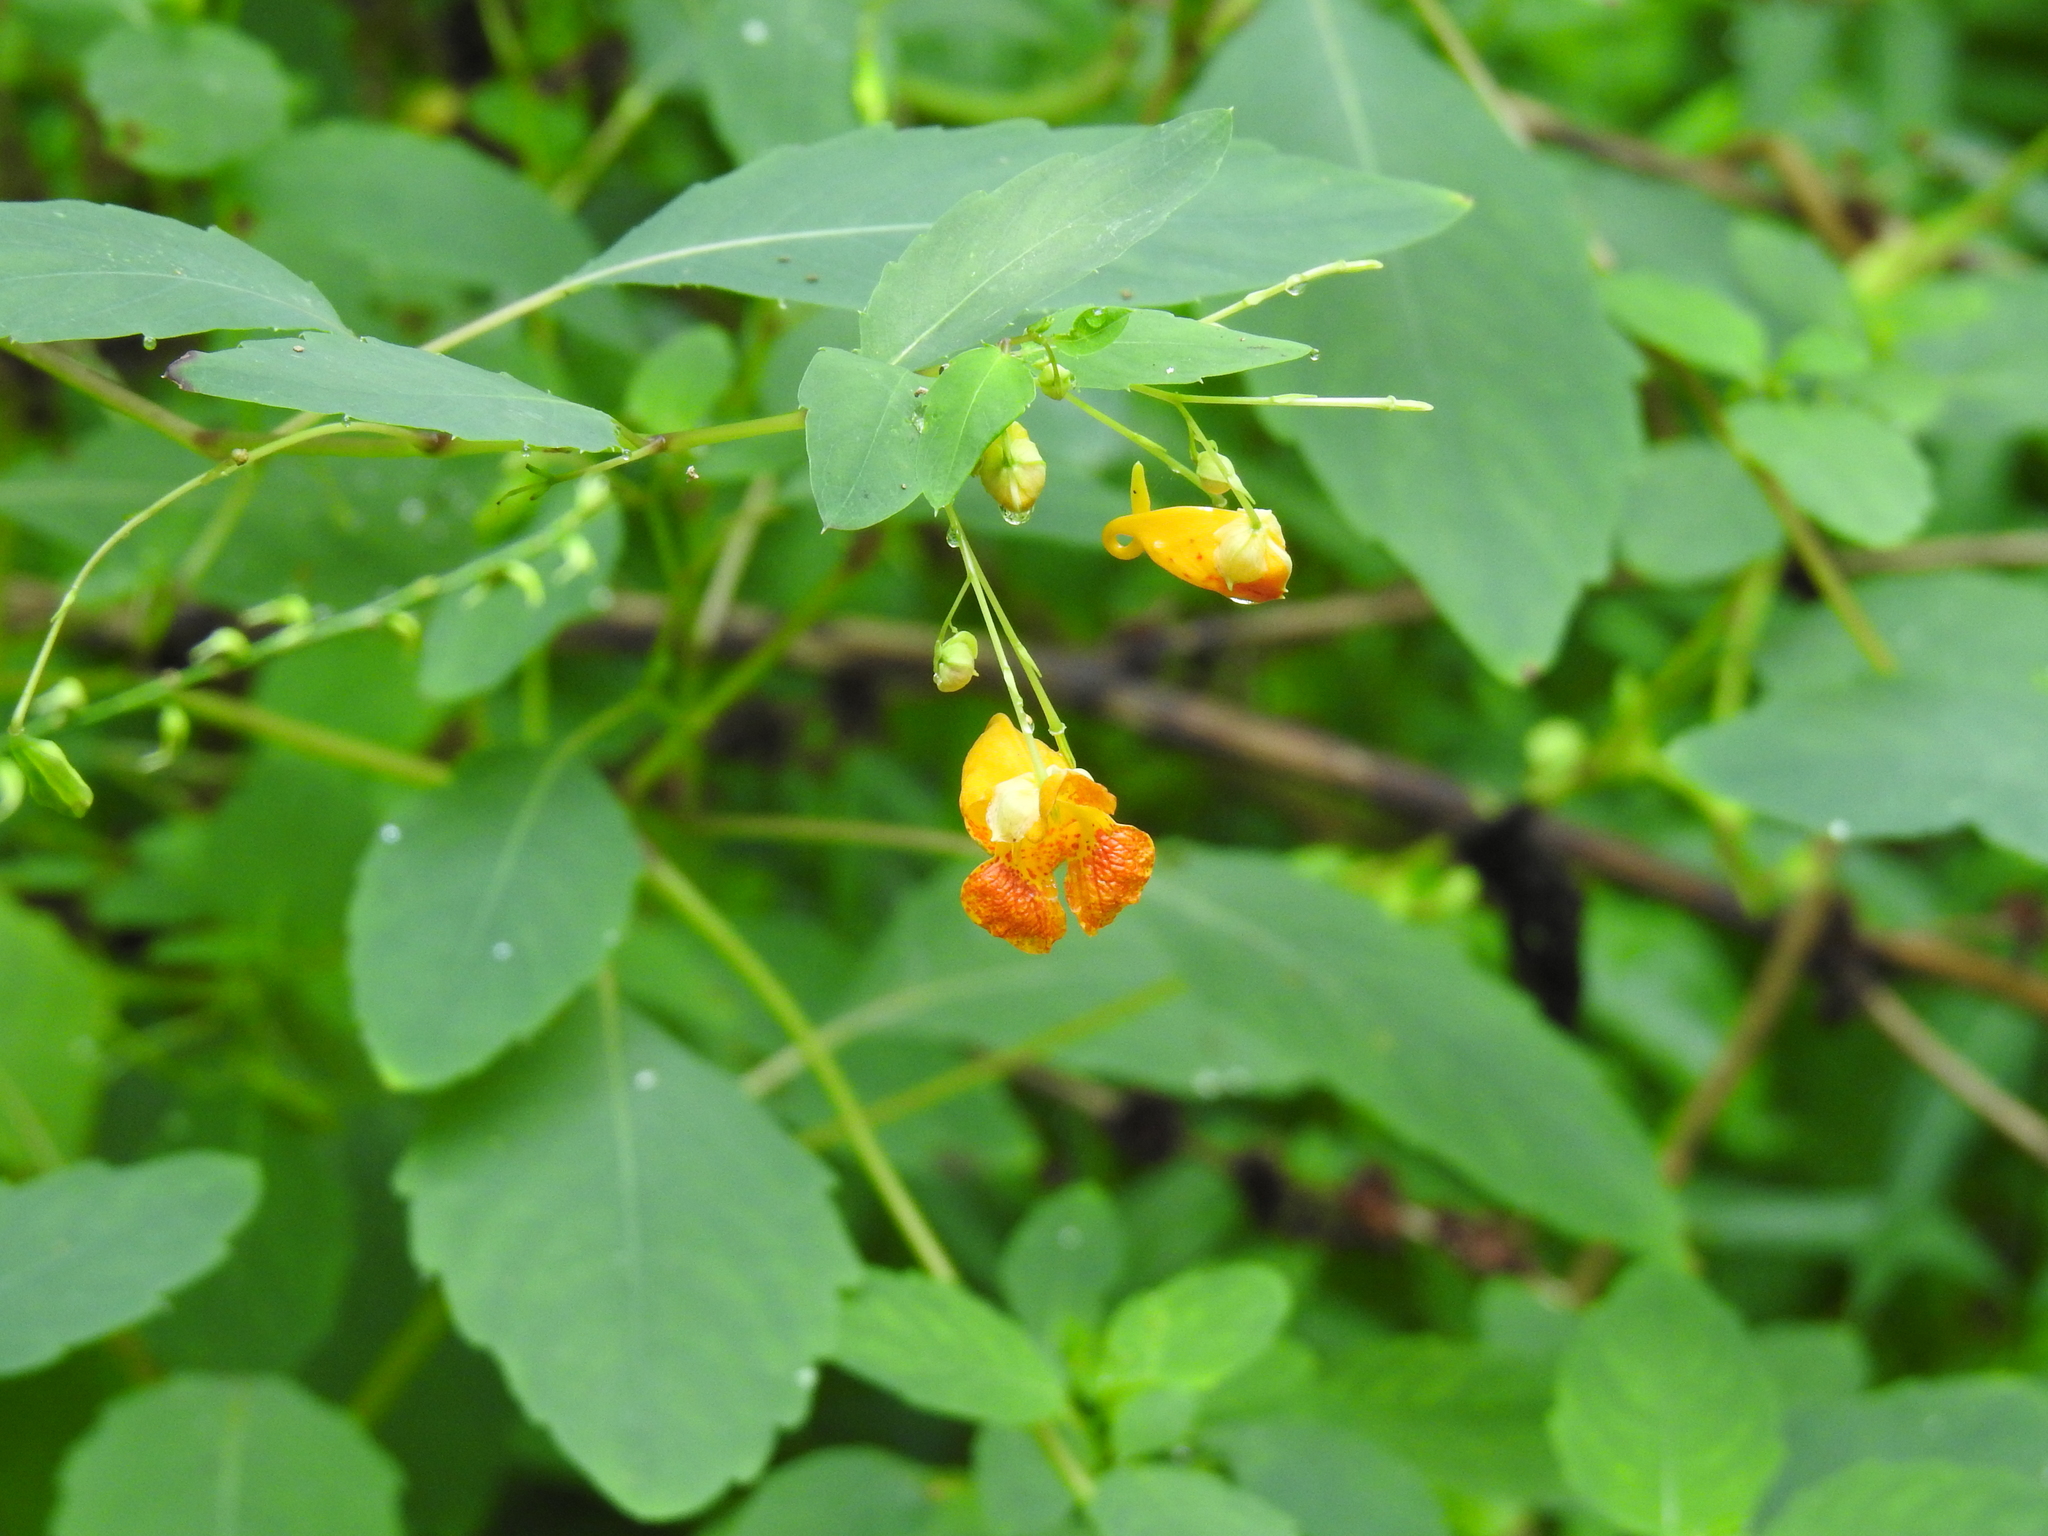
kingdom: Plantae
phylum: Tracheophyta
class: Magnoliopsida
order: Ericales
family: Balsaminaceae
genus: Impatiens
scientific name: Impatiens capensis
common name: Orange balsam
